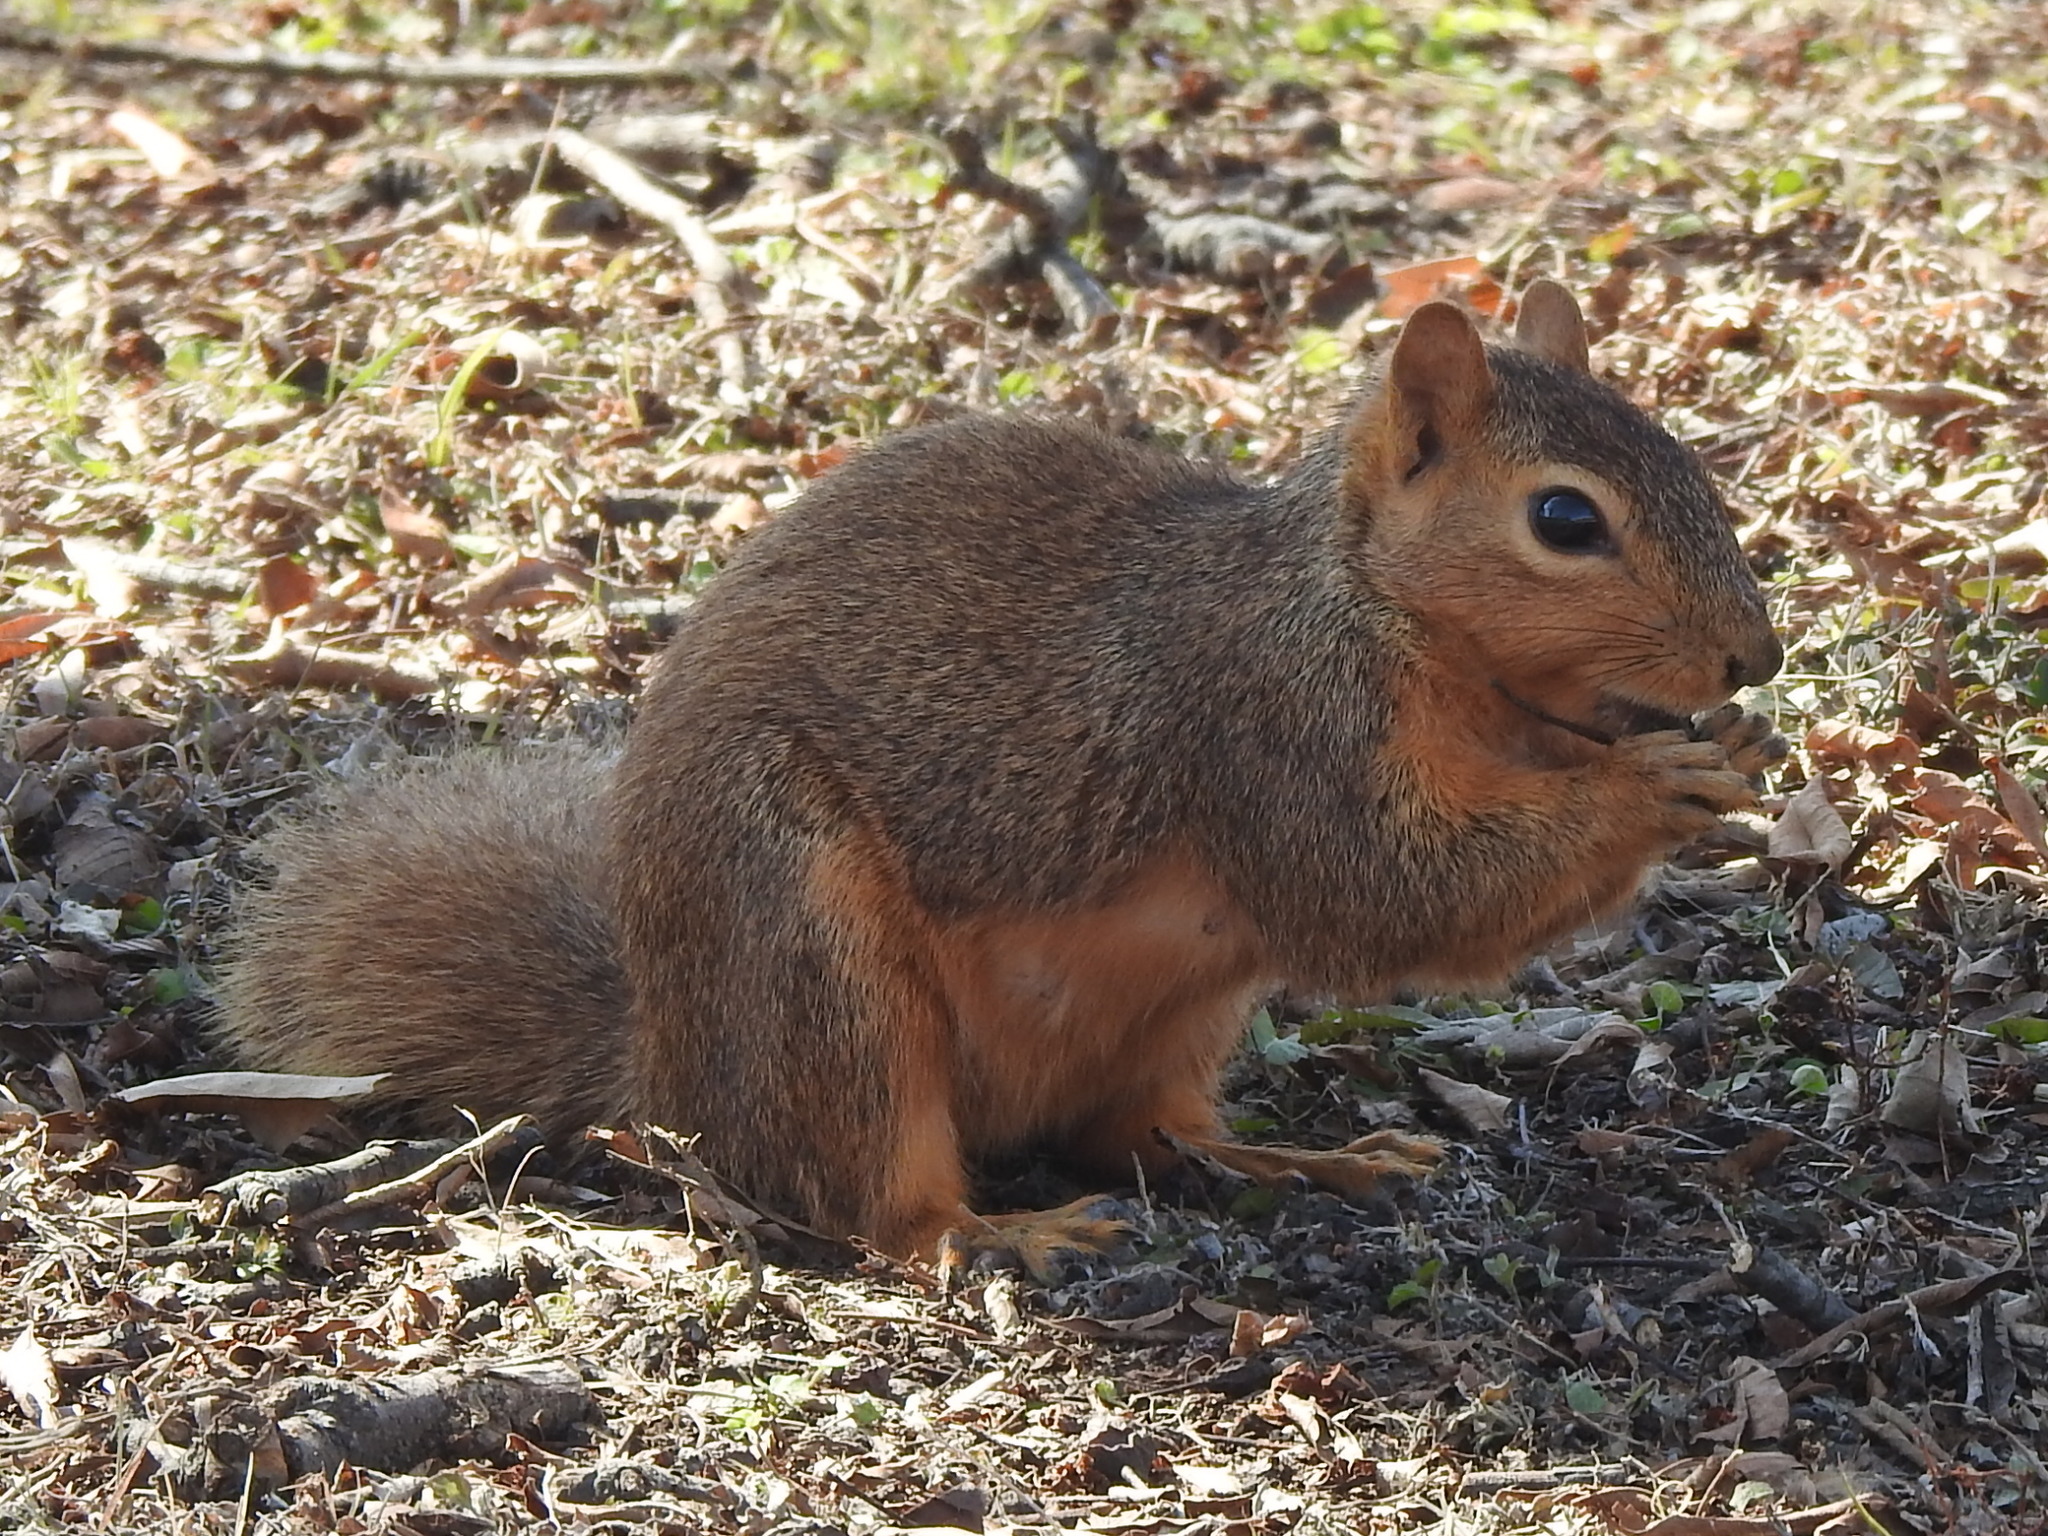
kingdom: Animalia
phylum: Chordata
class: Mammalia
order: Rodentia
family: Sciuridae
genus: Sciurus
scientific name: Sciurus niger
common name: Fox squirrel
